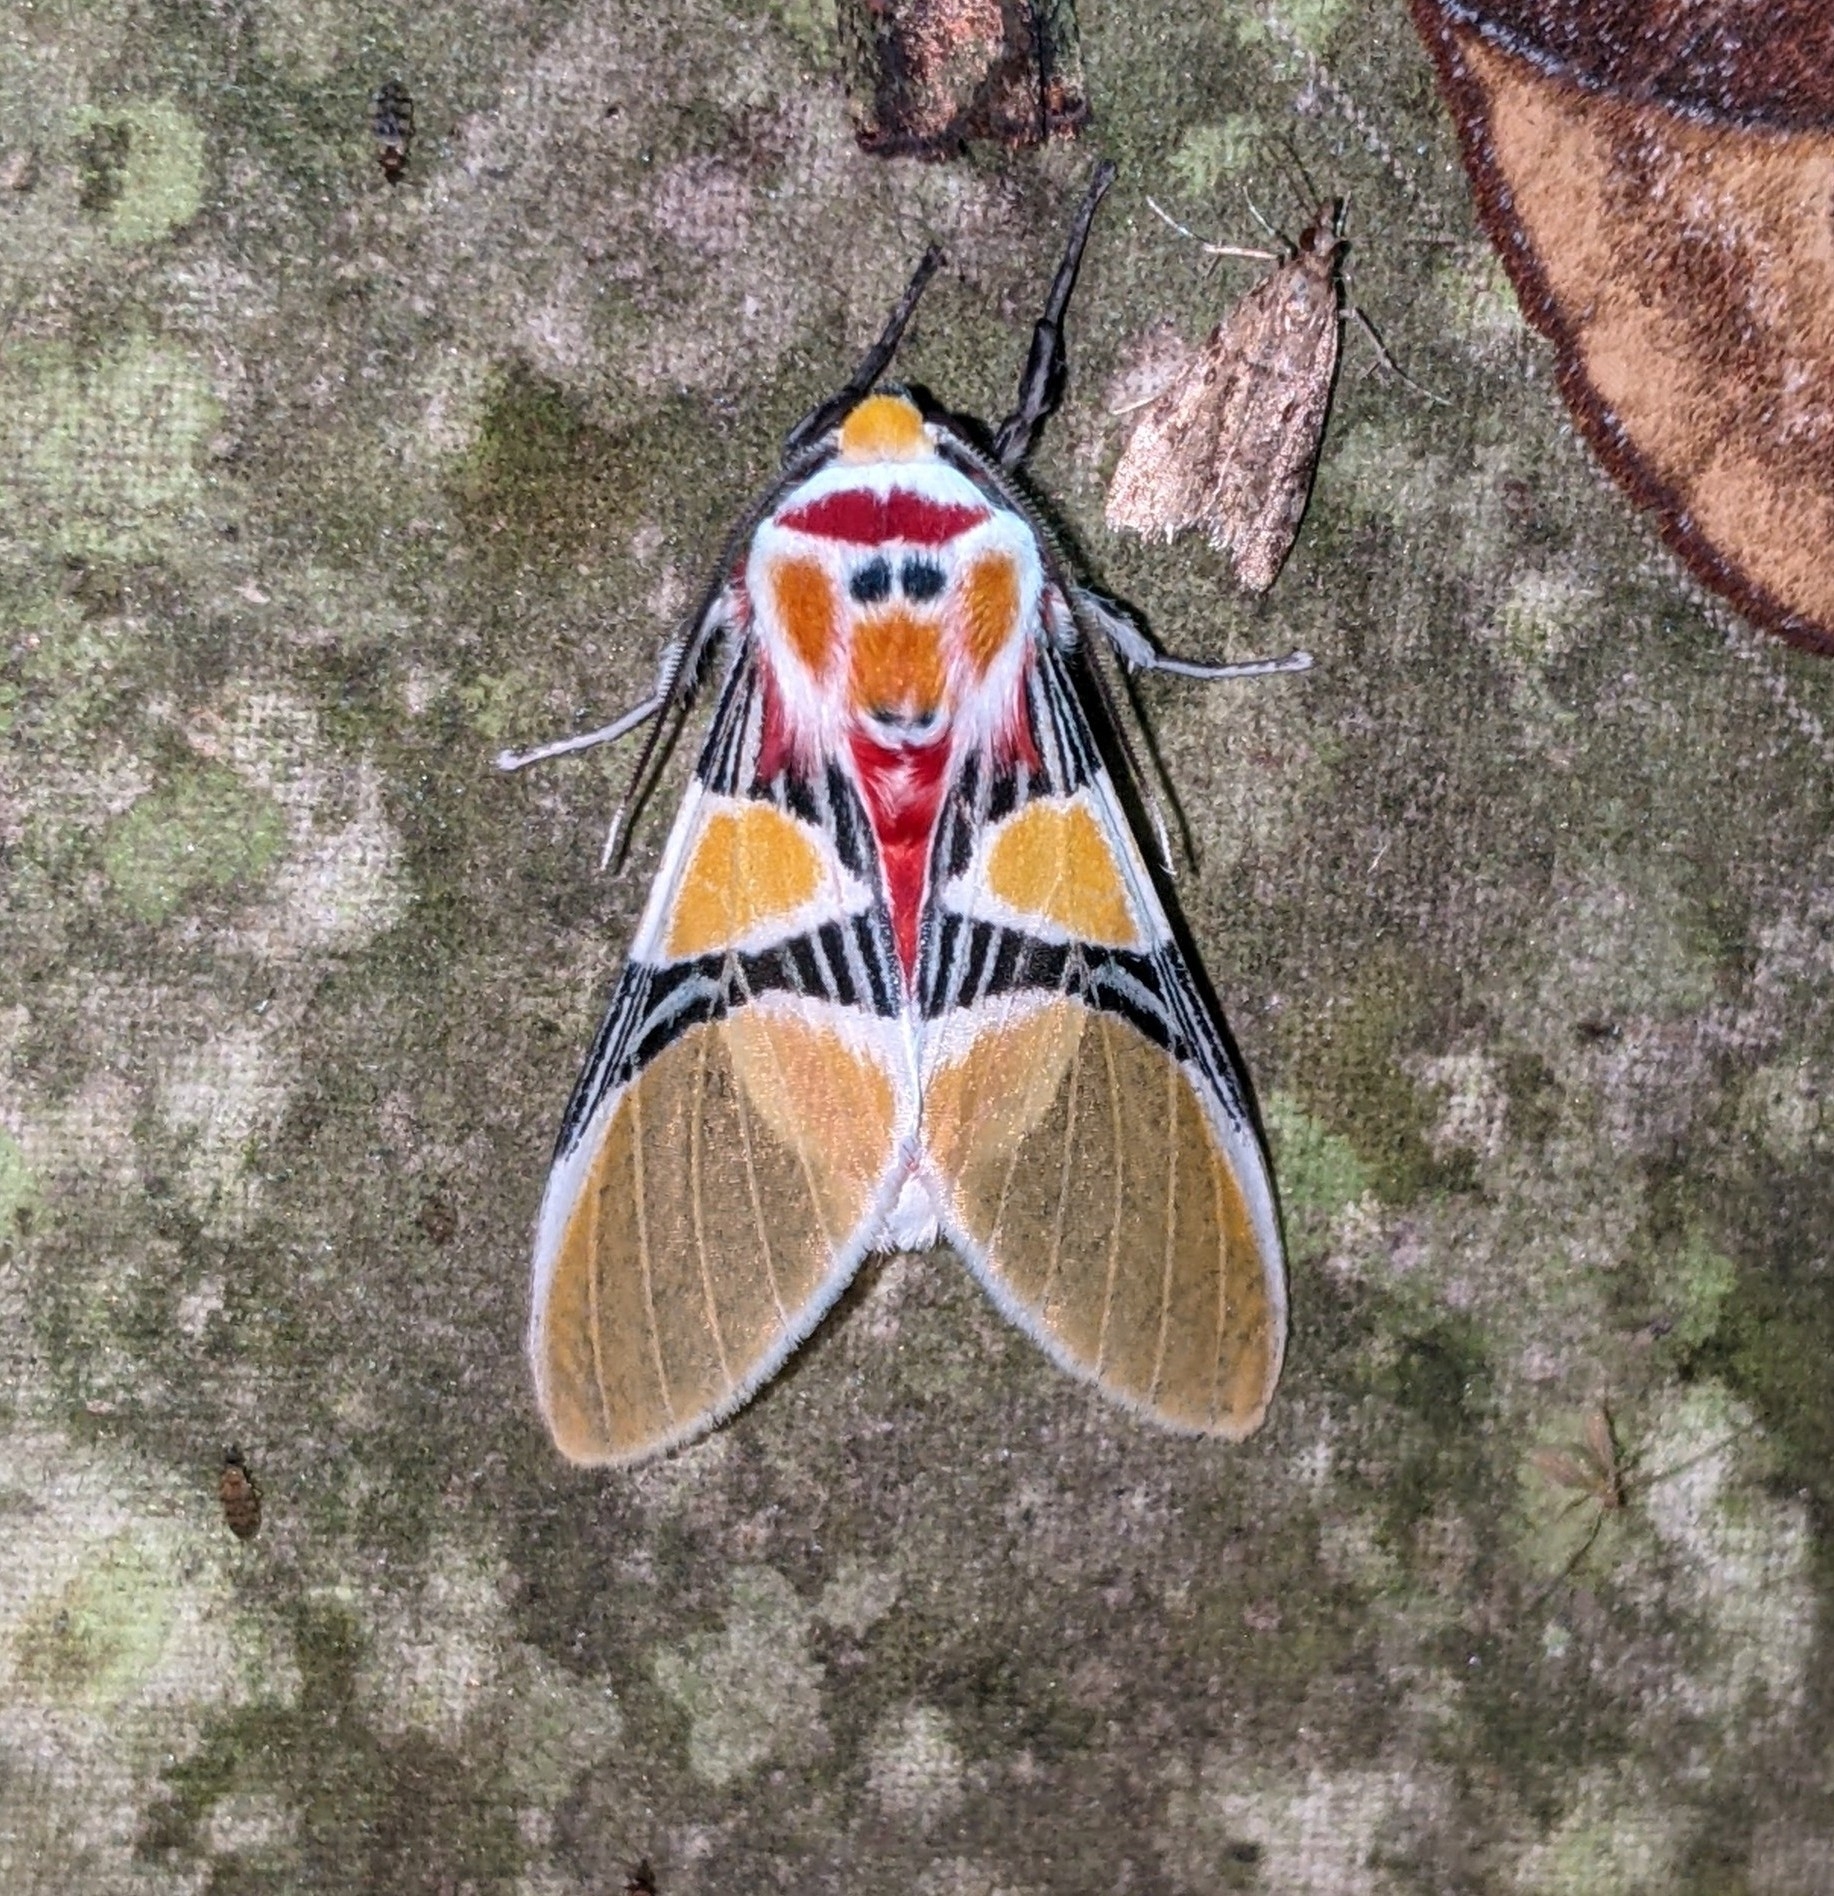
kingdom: Animalia
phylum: Arthropoda
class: Insecta
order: Lepidoptera
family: Erebidae
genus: Idalus
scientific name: Idalus critheis
